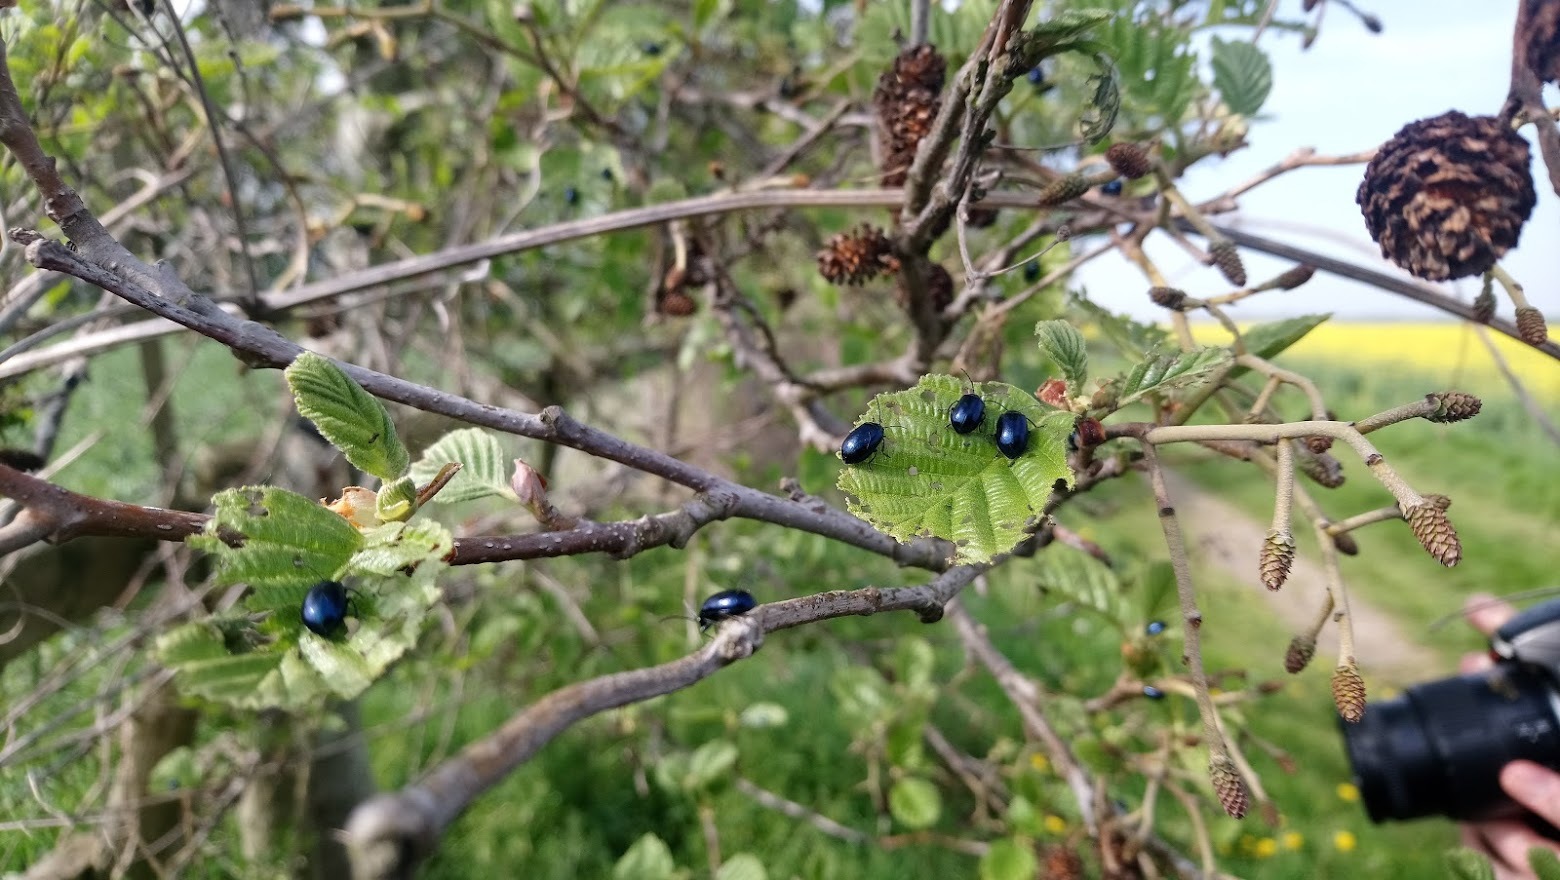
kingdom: Animalia
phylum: Arthropoda
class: Insecta
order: Coleoptera
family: Chrysomelidae
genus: Agelastica
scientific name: Agelastica alni
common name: Alder leaf beetle
